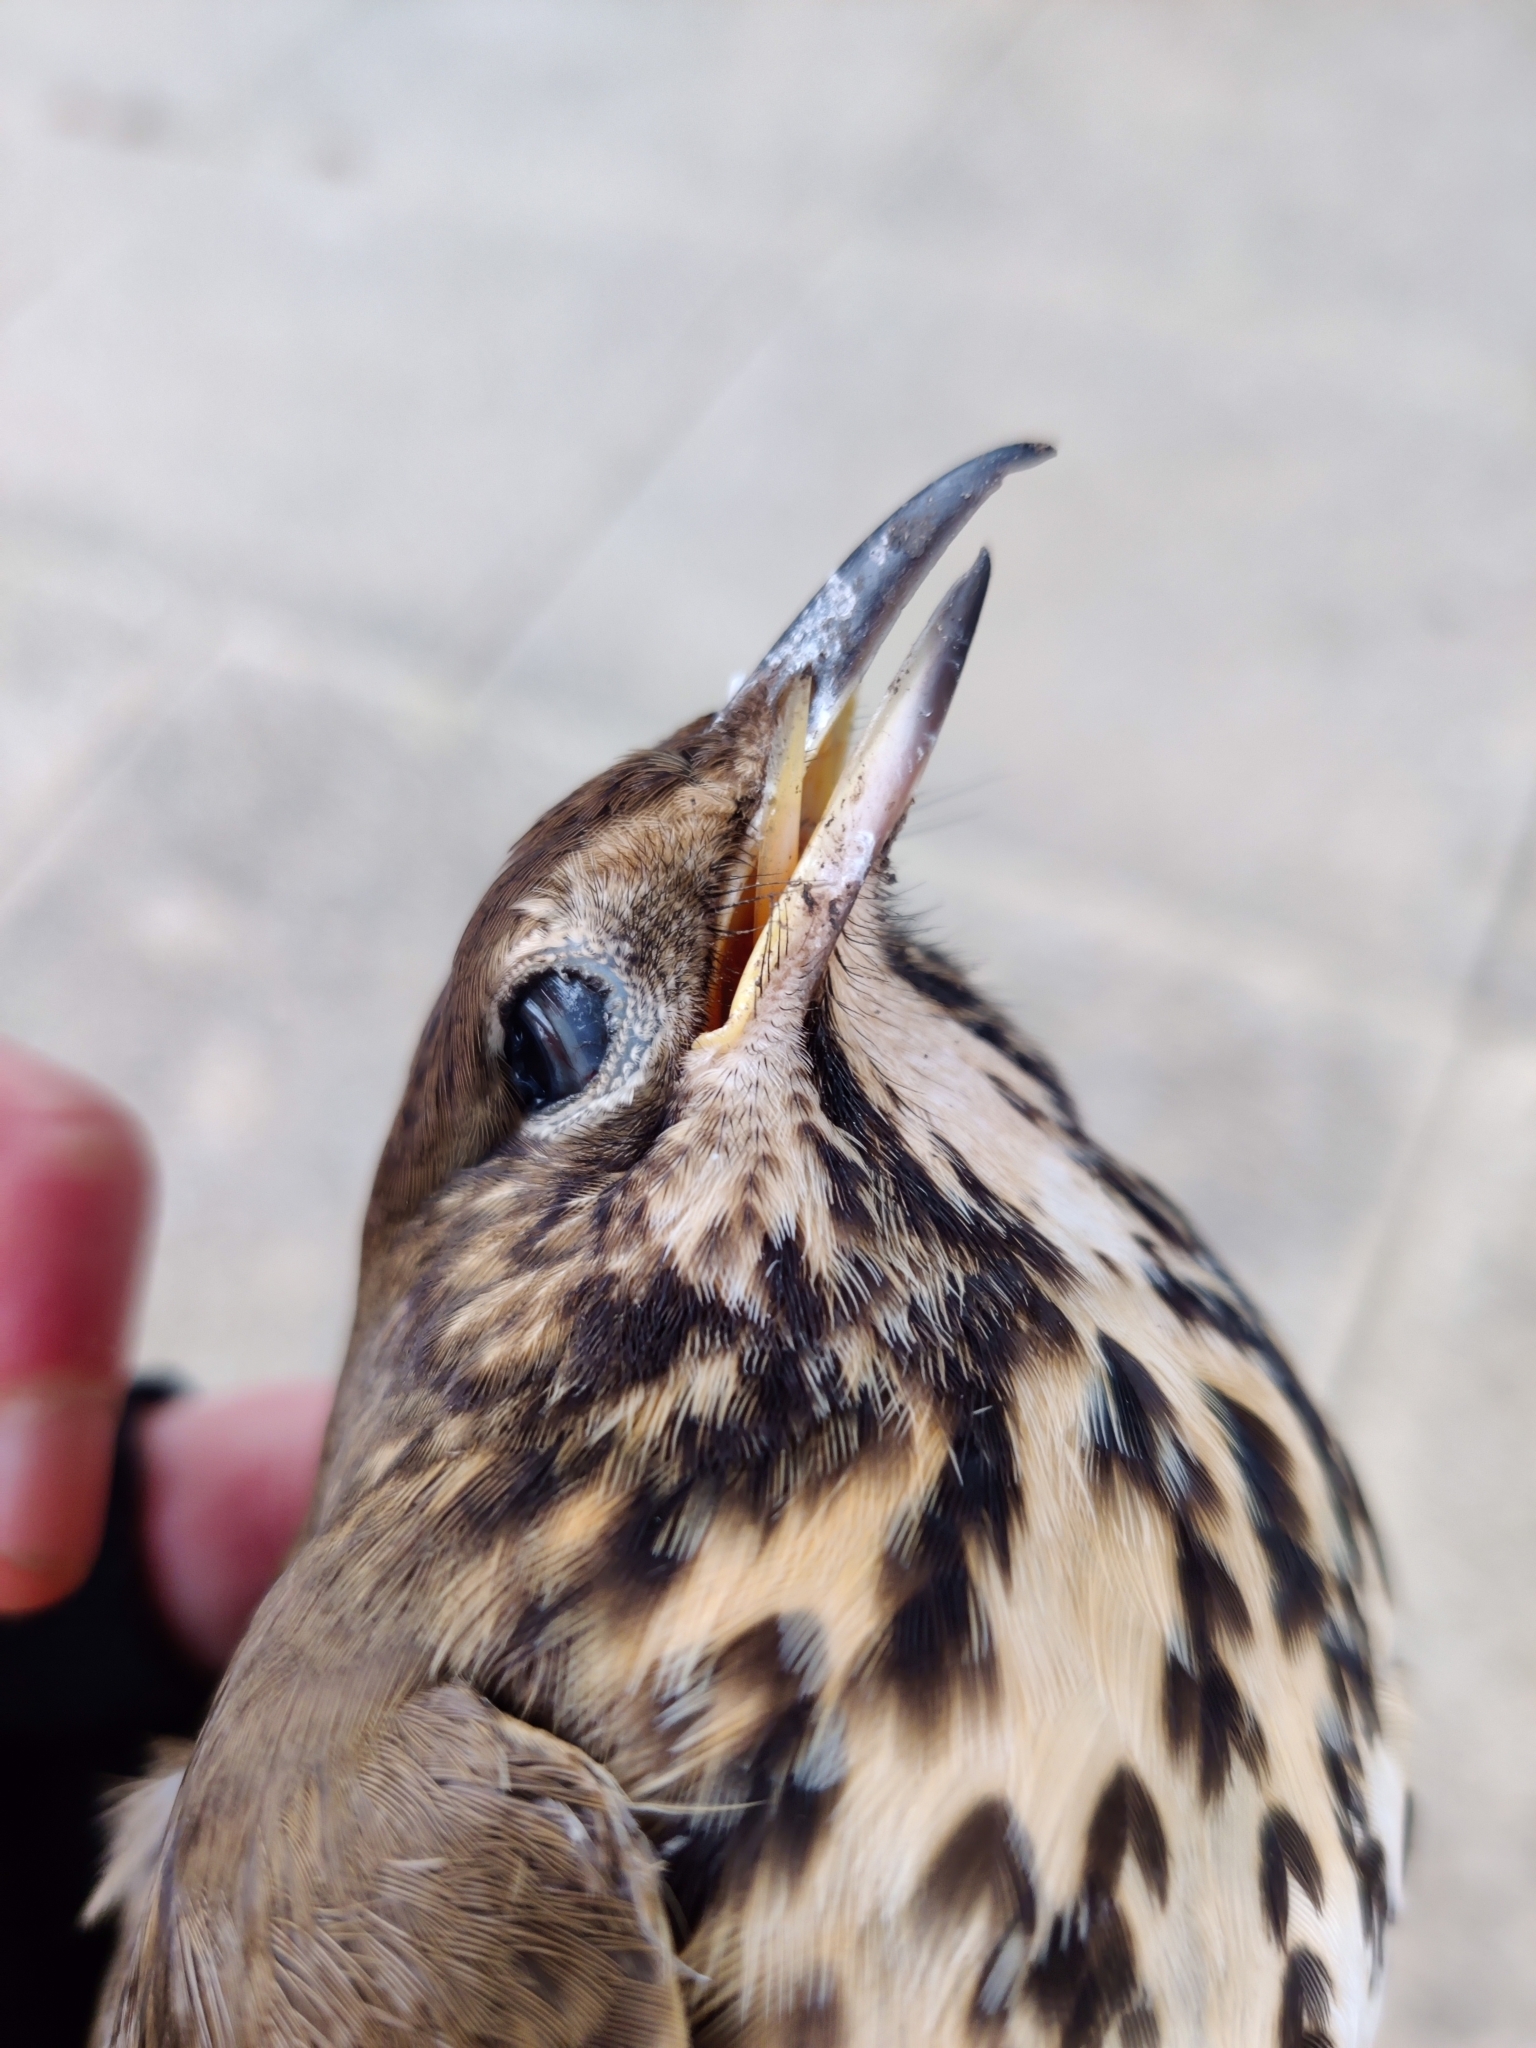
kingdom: Animalia
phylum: Chordata
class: Aves
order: Passeriformes
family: Turdidae
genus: Turdus
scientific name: Turdus philomelos
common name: Song thrush
